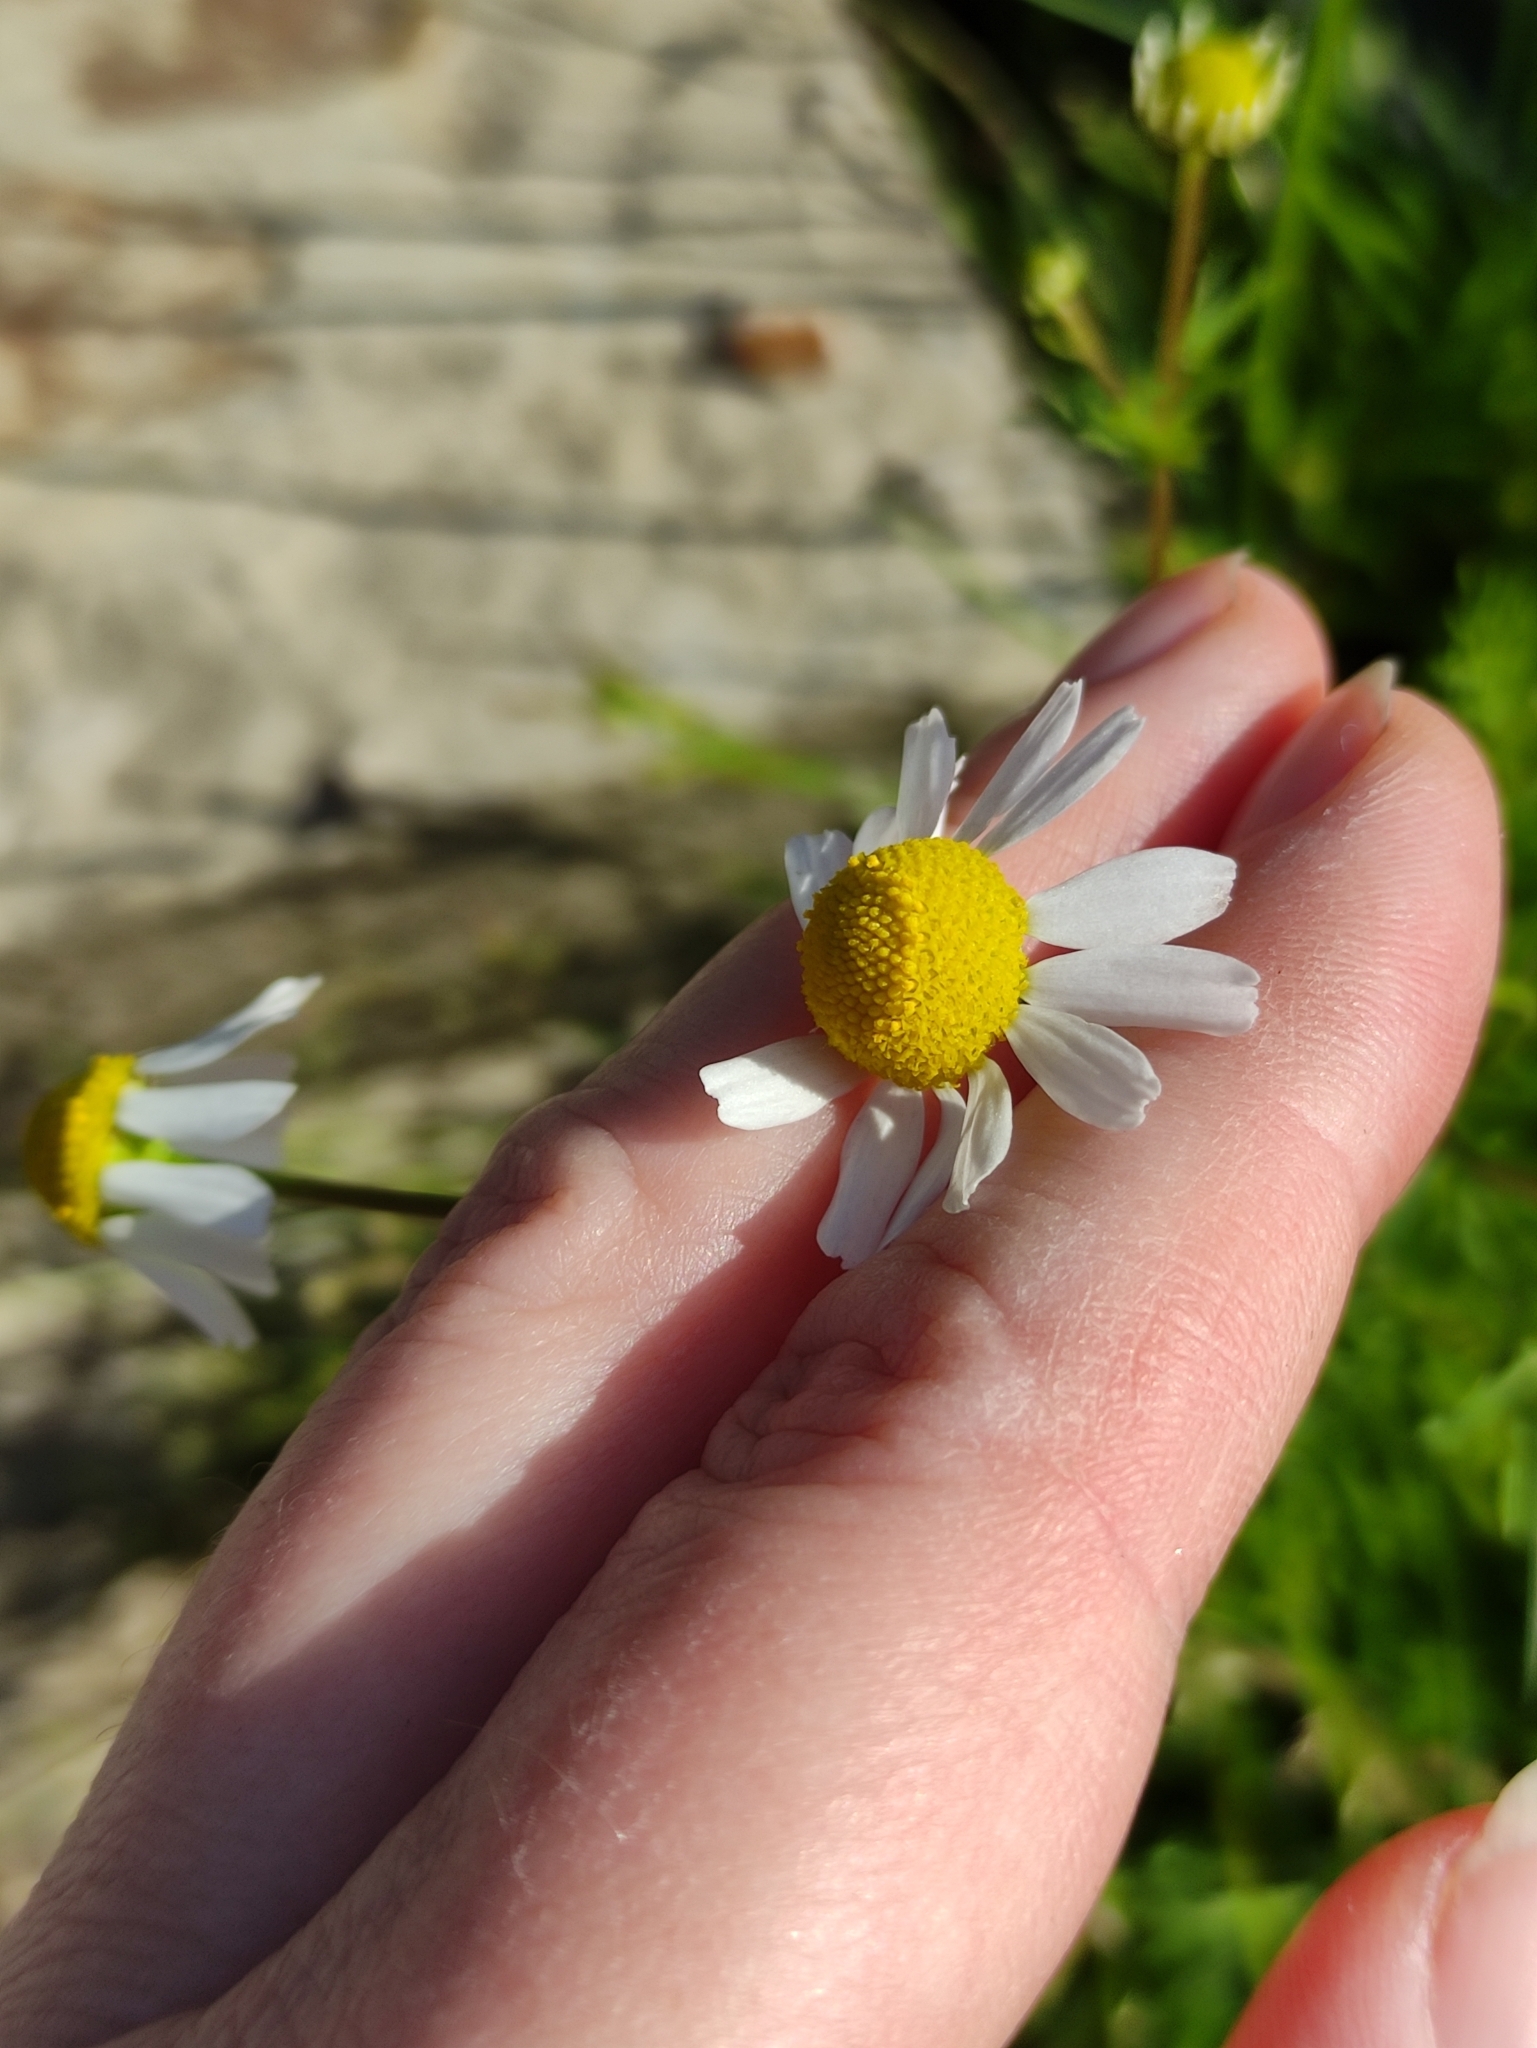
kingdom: Plantae
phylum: Tracheophyta
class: Magnoliopsida
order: Asterales
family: Asteraceae
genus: Matricaria
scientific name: Matricaria chamomilla
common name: Scented mayweed
